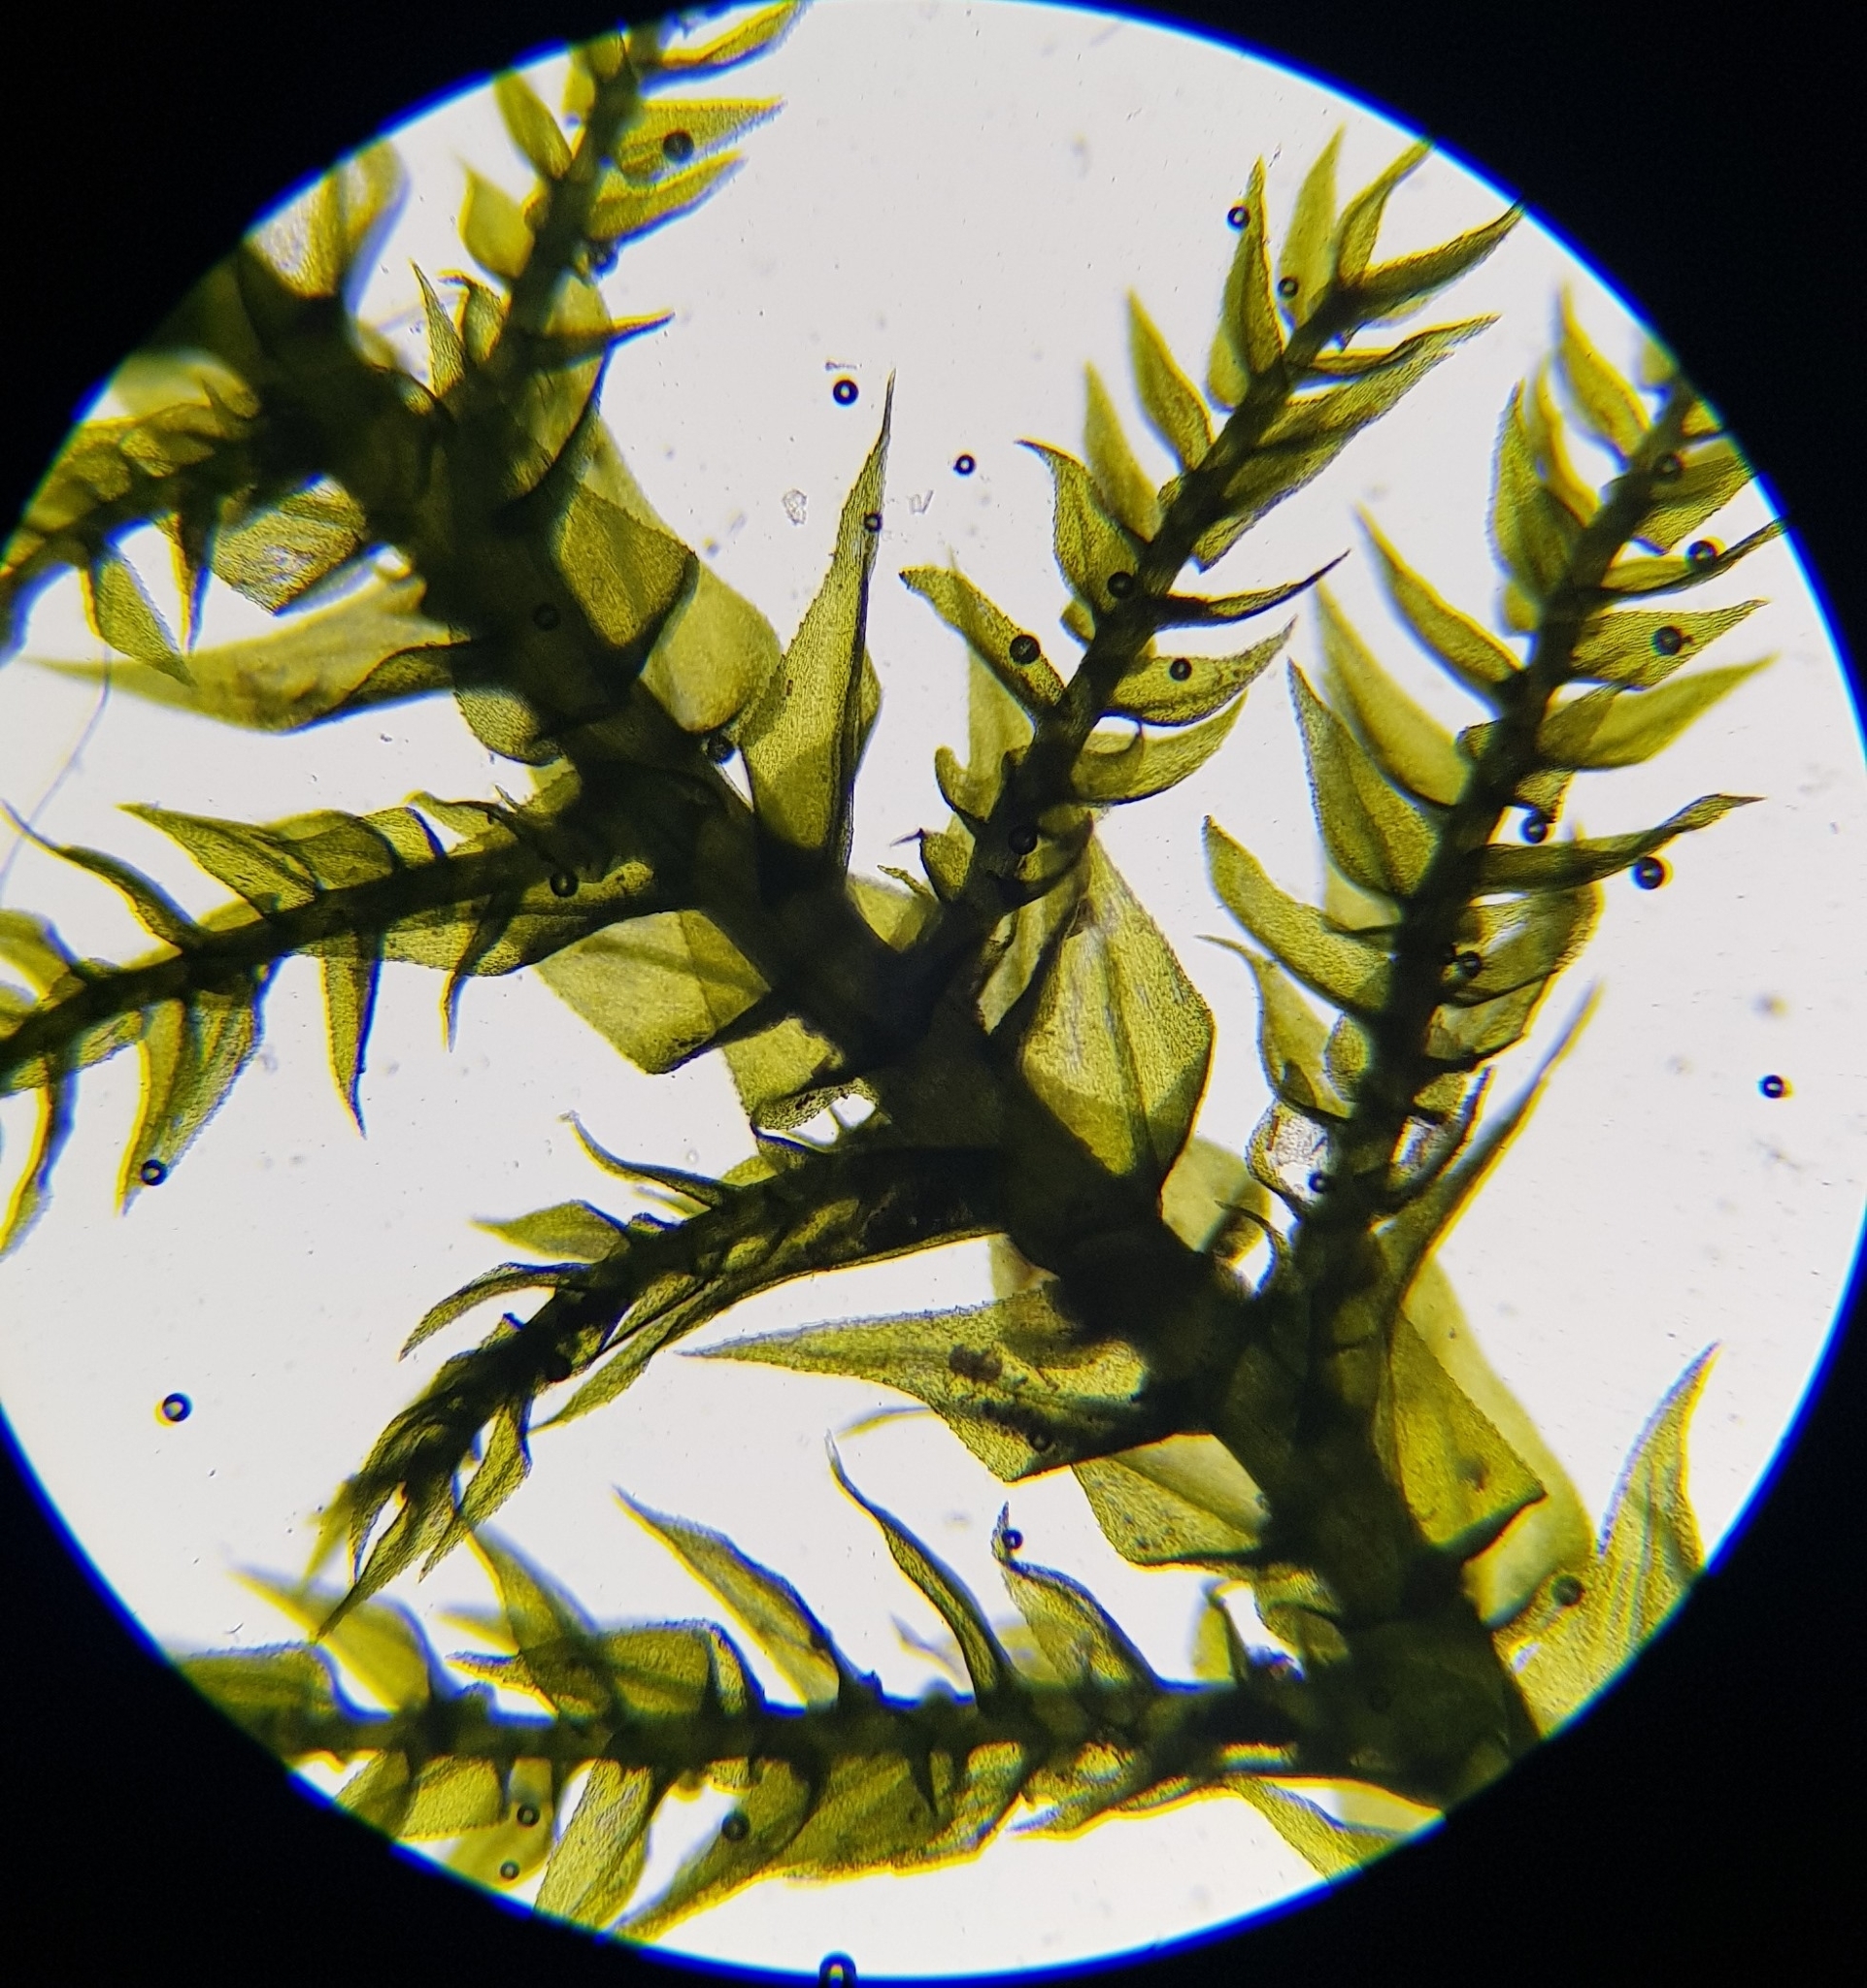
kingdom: Plantae
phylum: Bryophyta
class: Bryopsida
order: Hypnales
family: Brachytheciaceae
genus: Kindbergia
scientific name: Kindbergia praelonga
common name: Slender beaked moss
